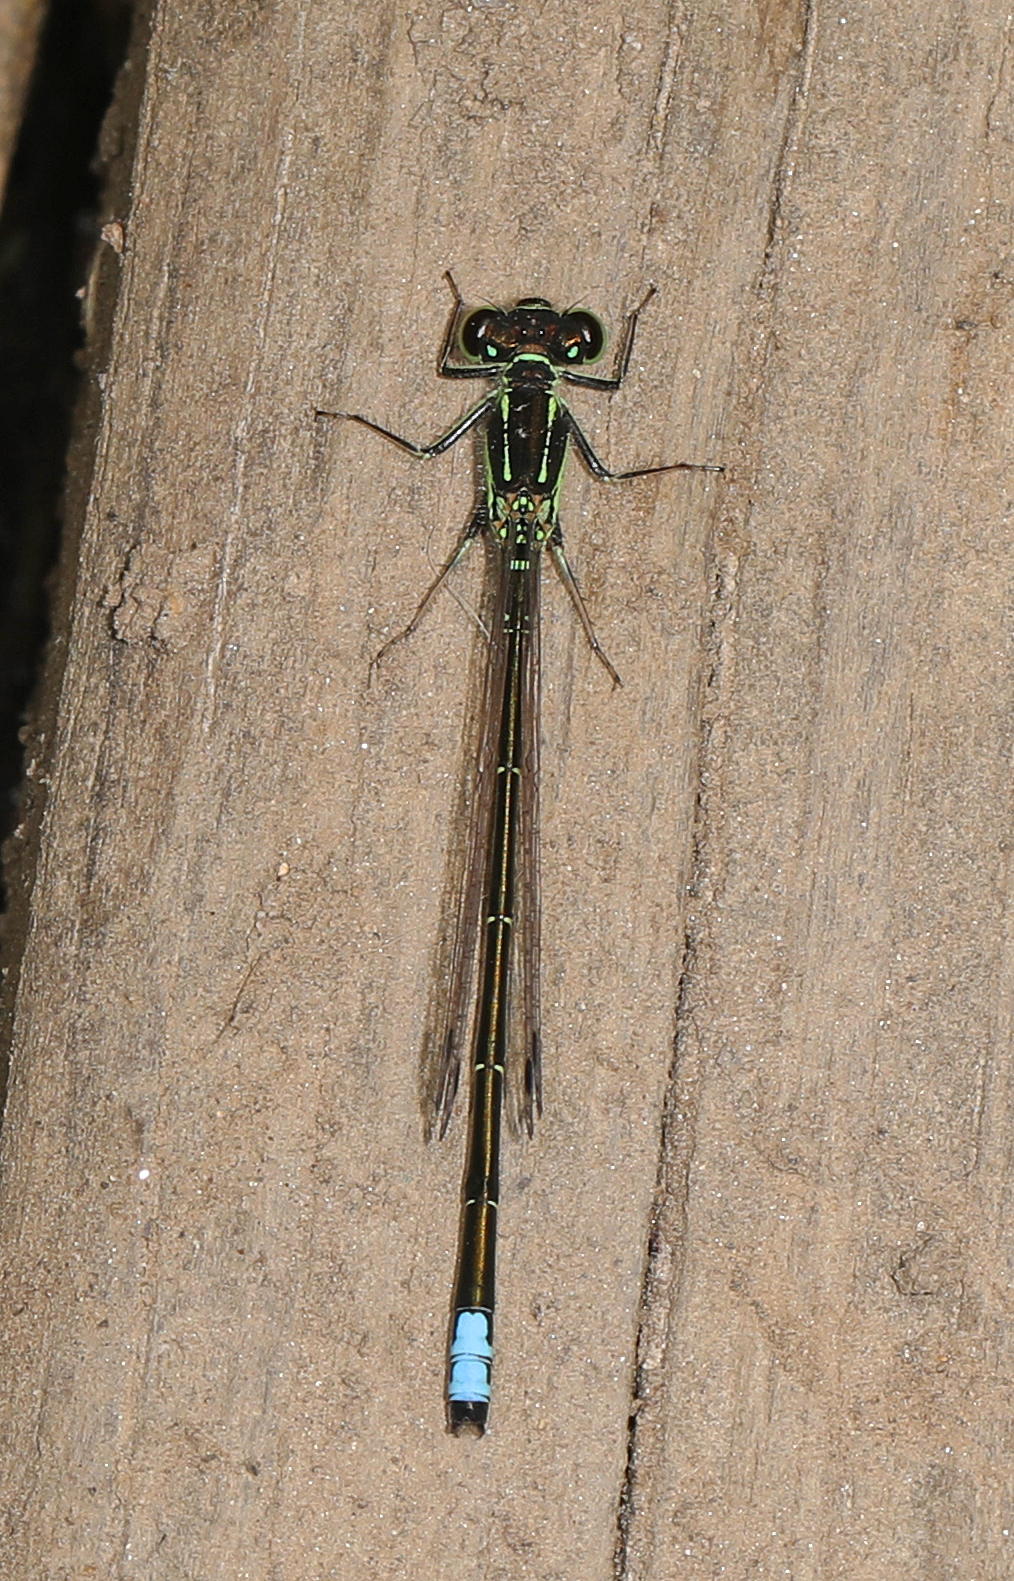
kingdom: Animalia
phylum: Arthropoda
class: Insecta
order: Odonata
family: Coenagrionidae
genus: Ischnura
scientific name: Ischnura verticalis
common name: Eastern forktail
